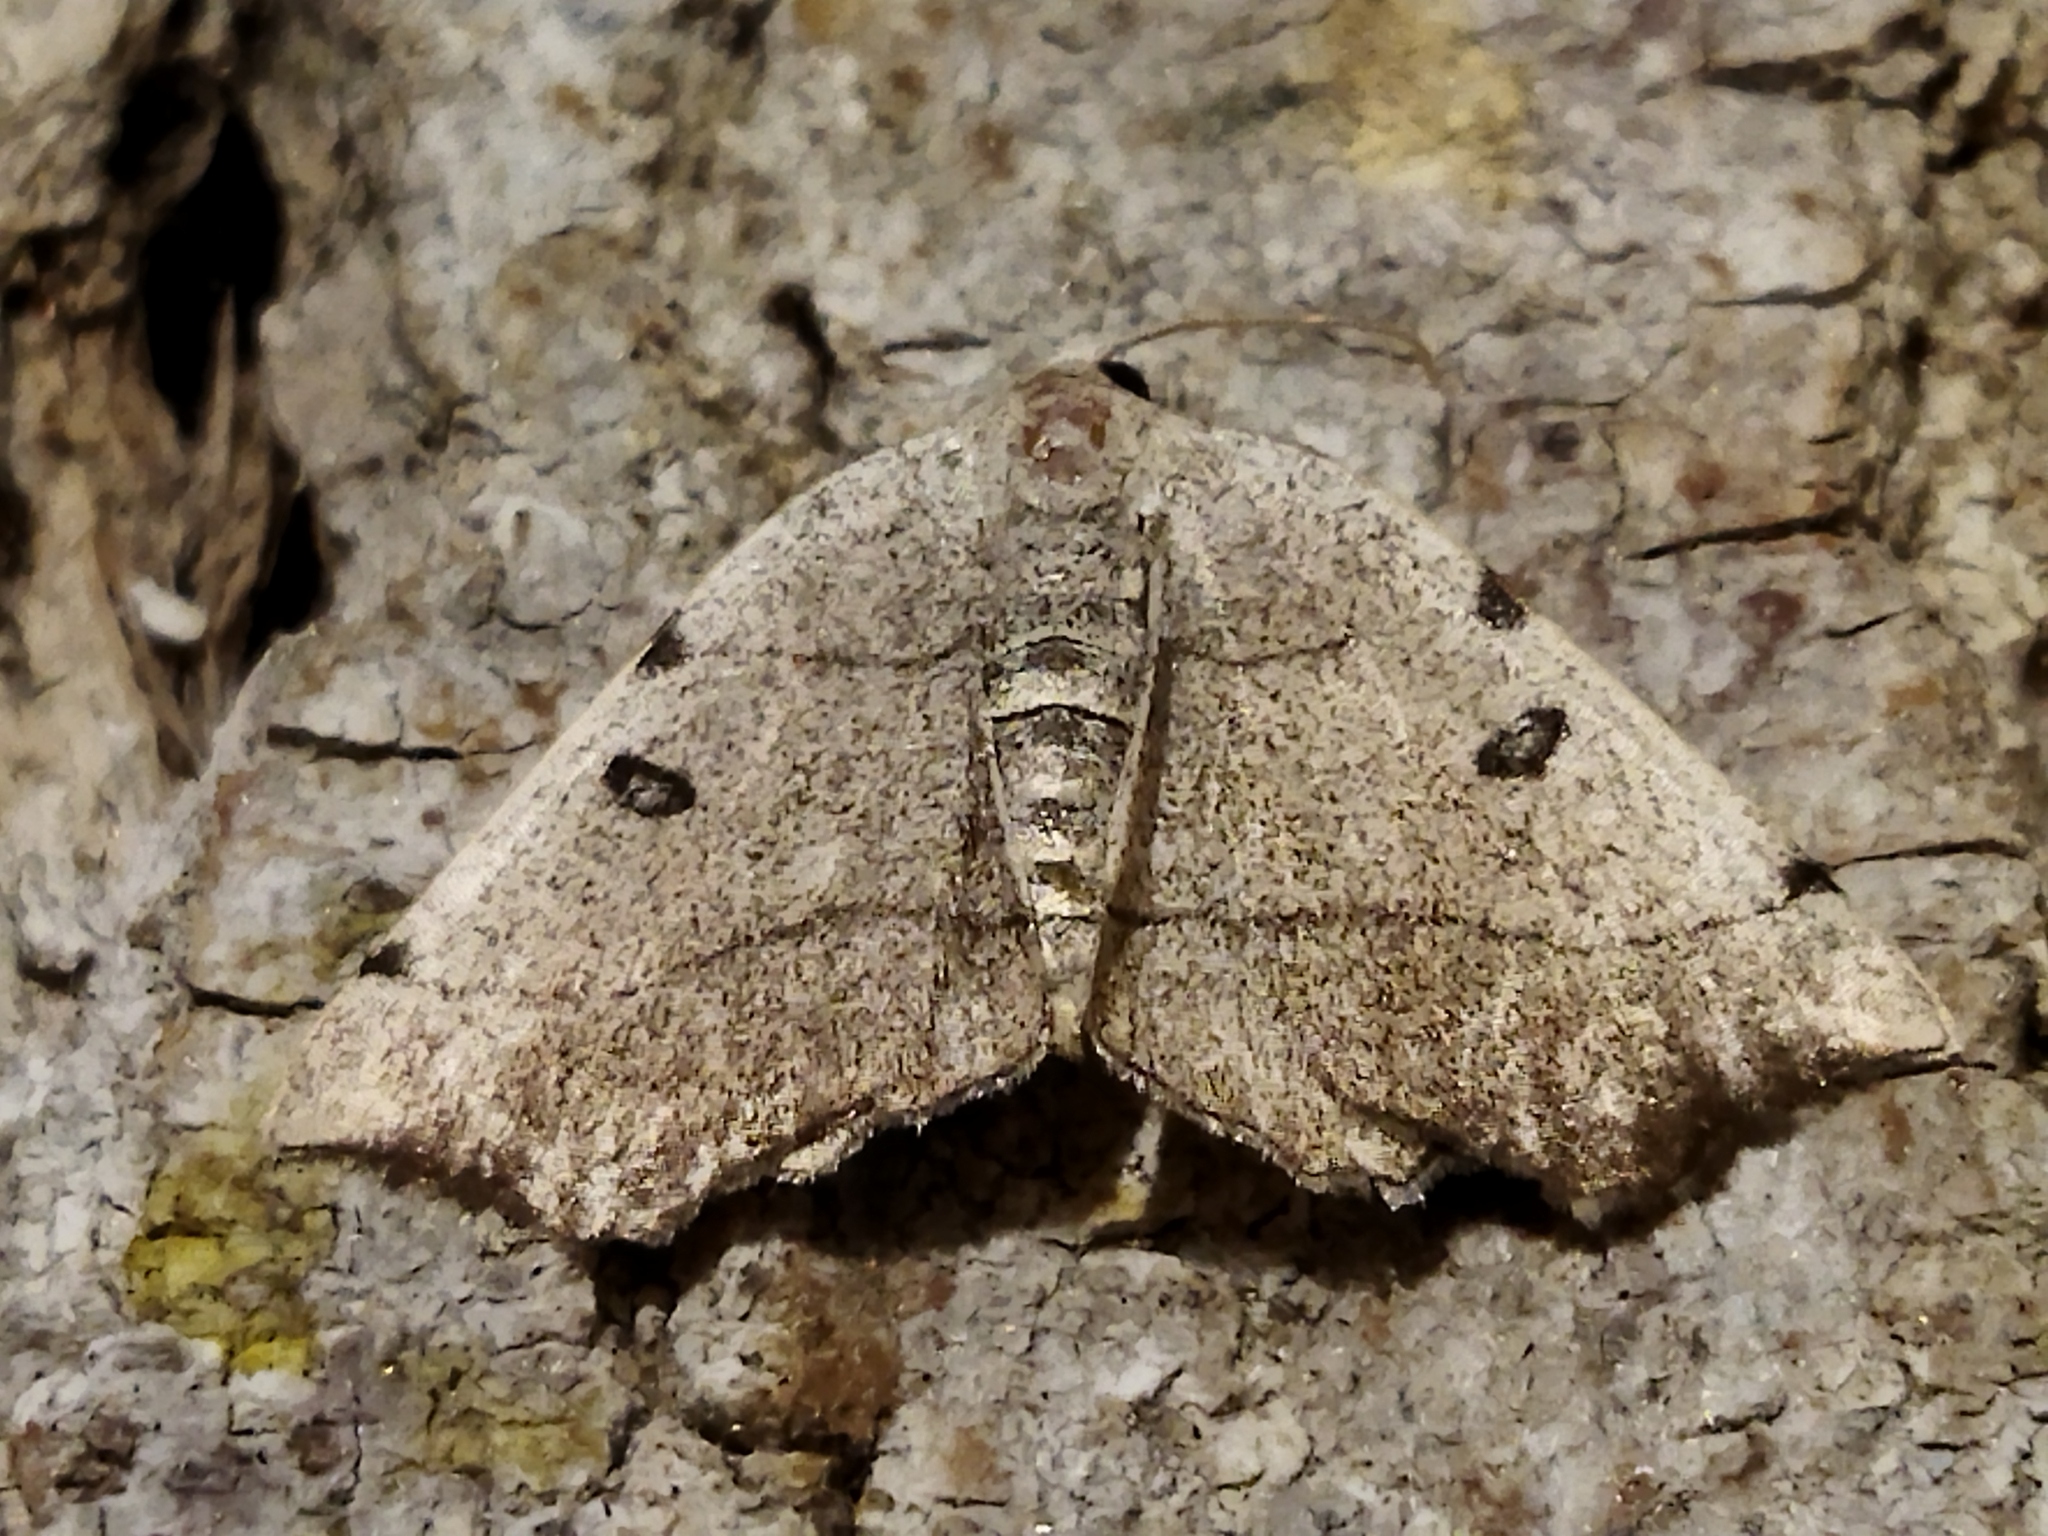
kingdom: Animalia
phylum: Arthropoda
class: Insecta
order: Lepidoptera
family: Geometridae
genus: Eilicrinia
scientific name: Eilicrinia trinotata
